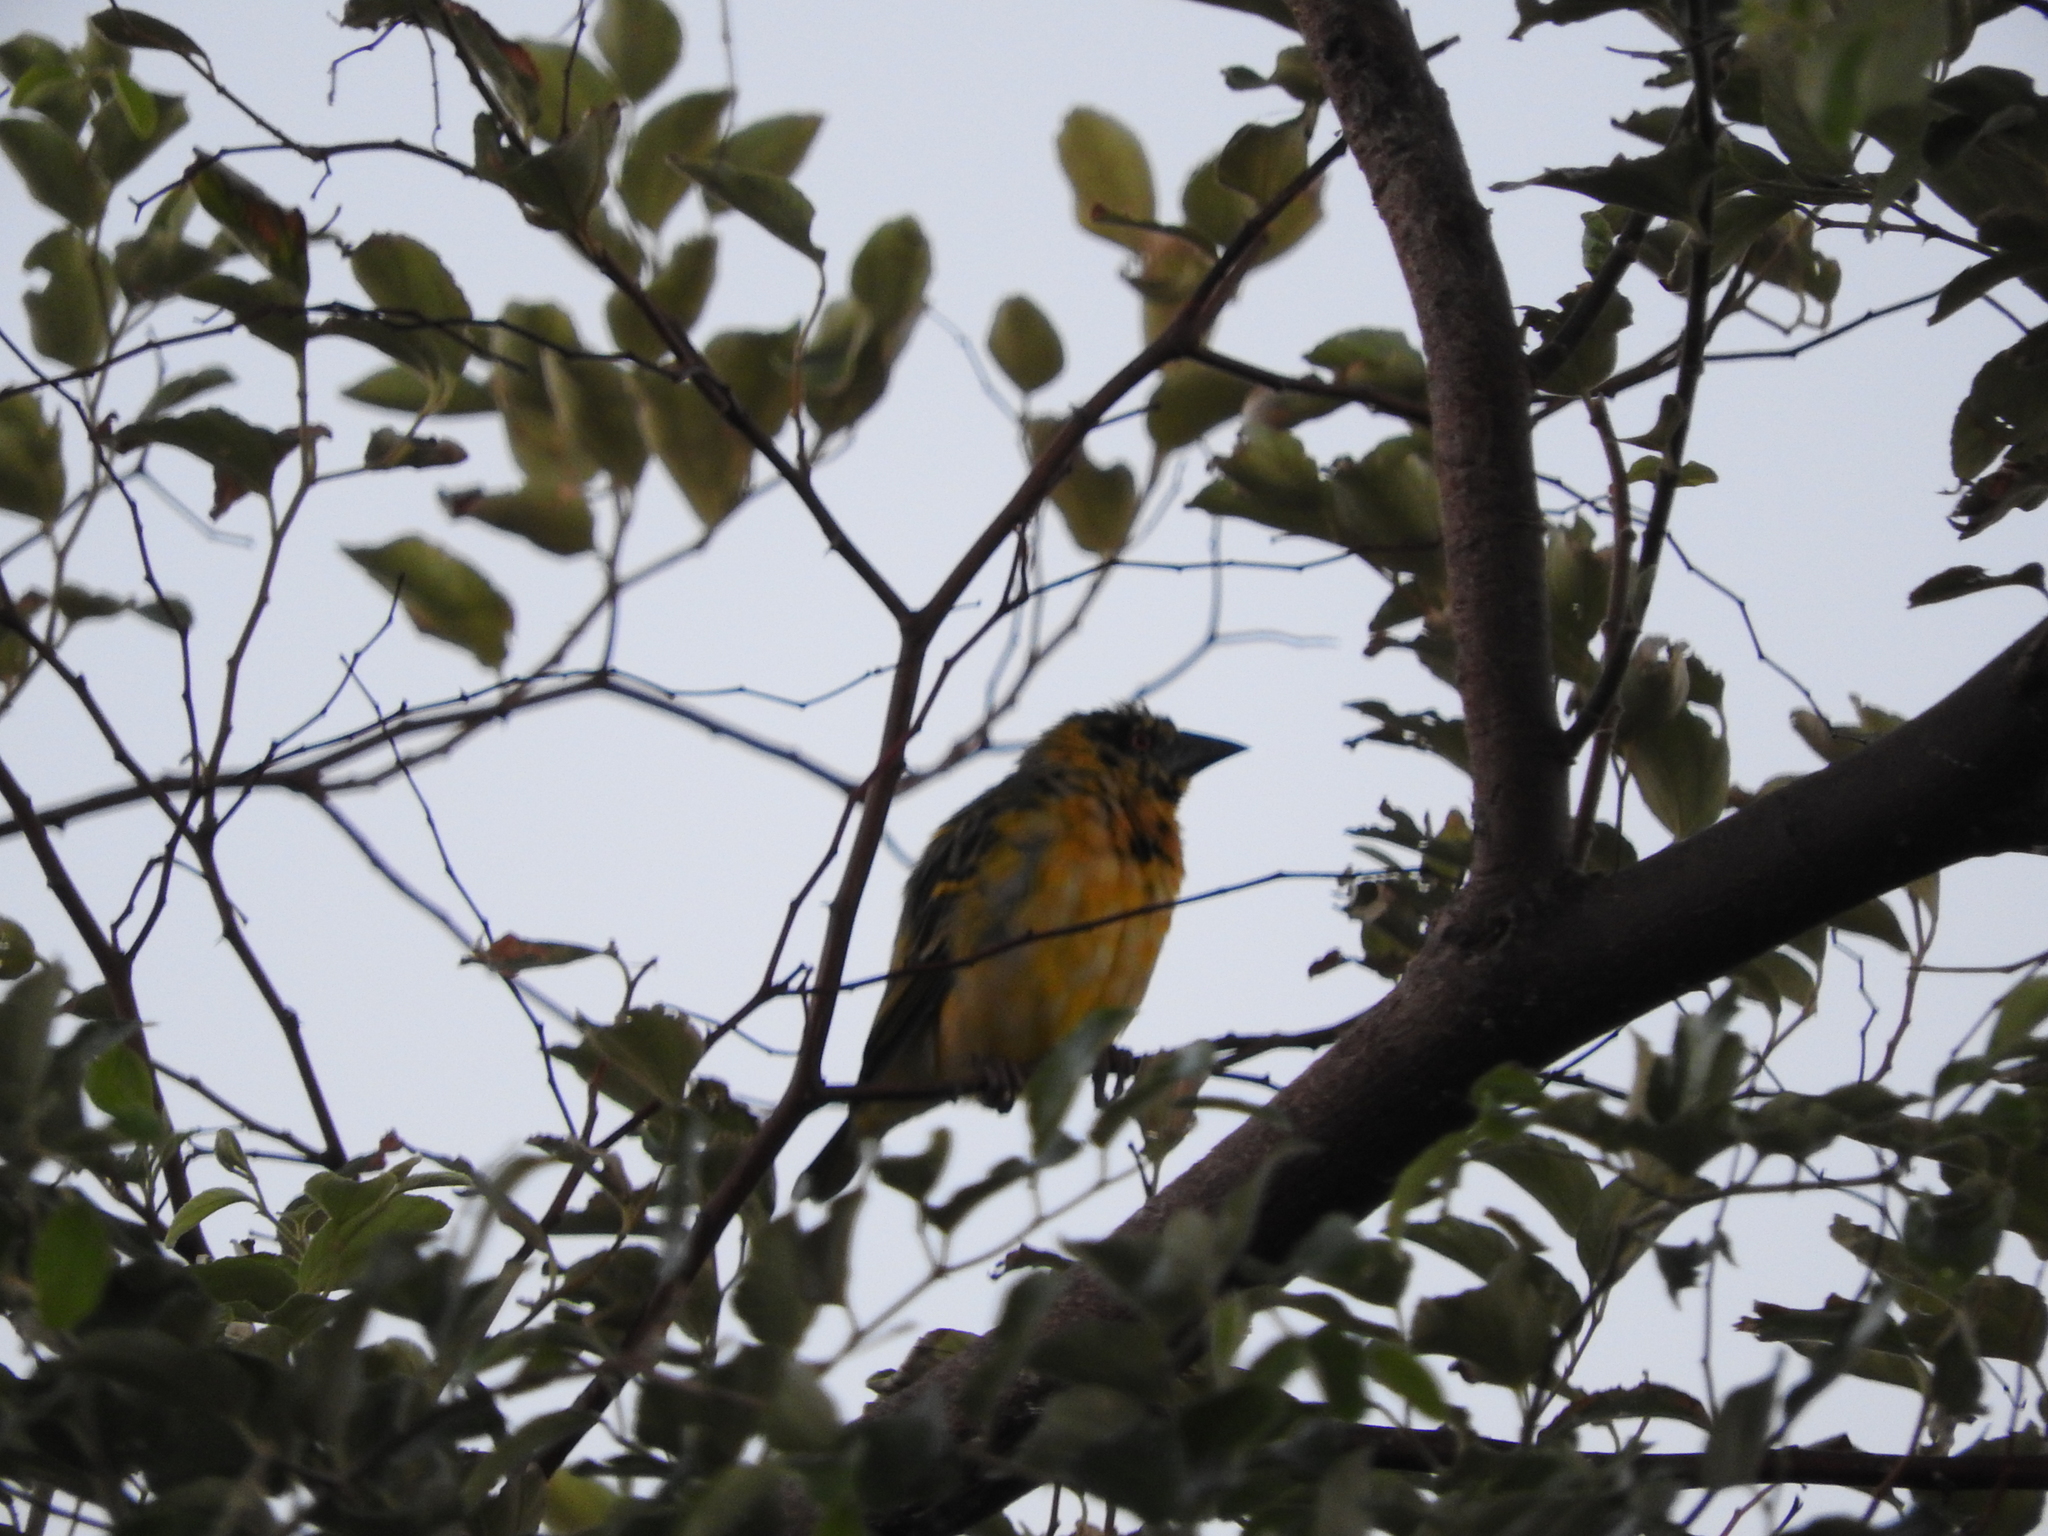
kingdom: Animalia
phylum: Chordata
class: Aves
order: Passeriformes
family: Ploceidae
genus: Ploceus
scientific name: Ploceus cucullatus
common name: Village weaver
